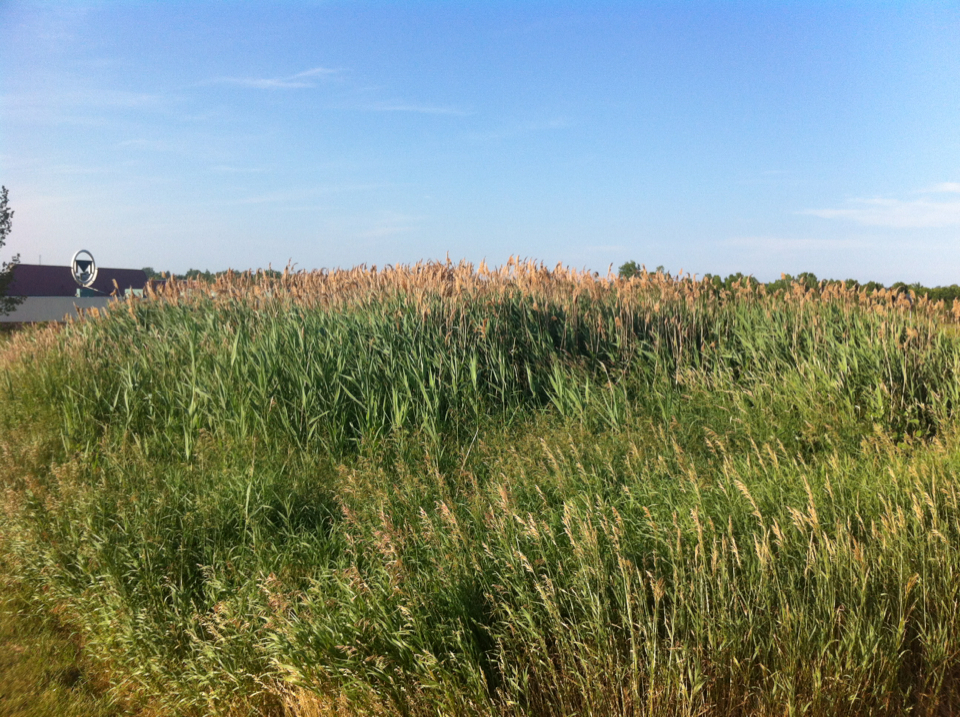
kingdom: Plantae
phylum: Tracheophyta
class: Liliopsida
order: Poales
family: Poaceae
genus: Phragmites
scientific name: Phragmites australis
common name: Common reed
